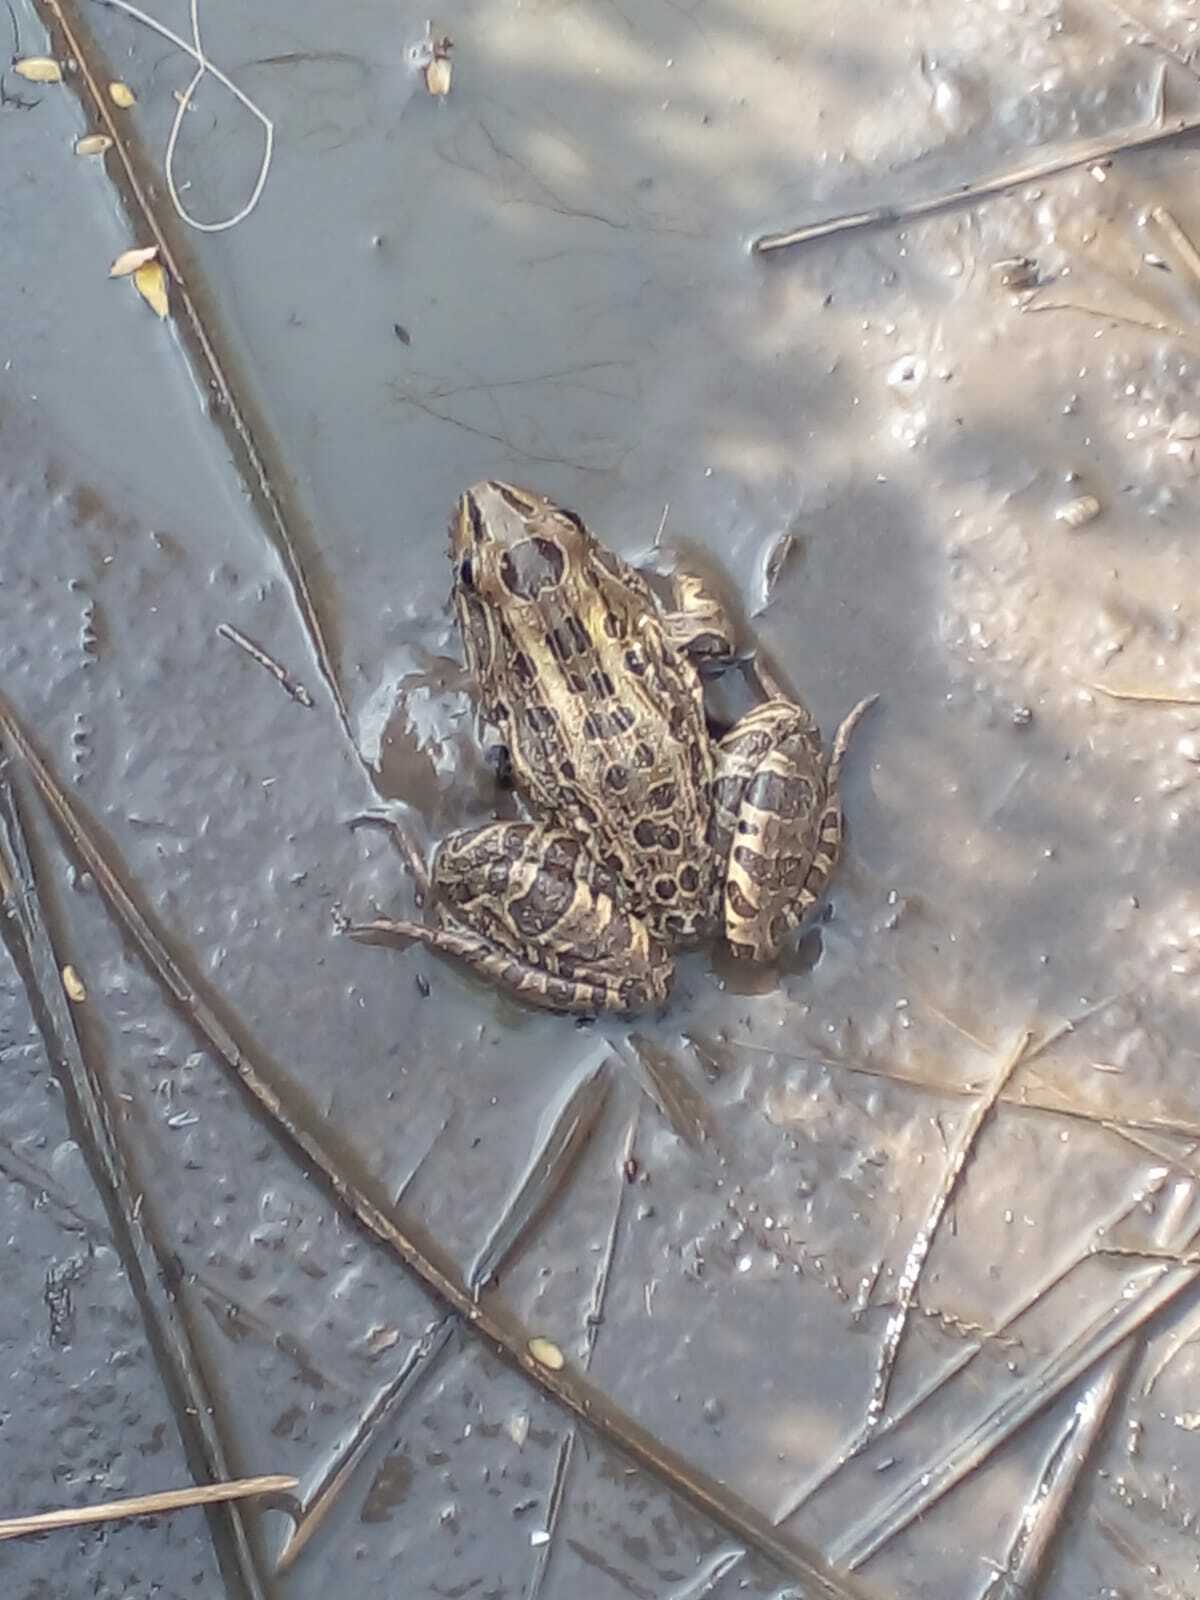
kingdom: Animalia
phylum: Chordata
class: Amphibia
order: Anura
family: Leptodactylidae
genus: Leptodactylus
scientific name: Leptodactylus luctator
